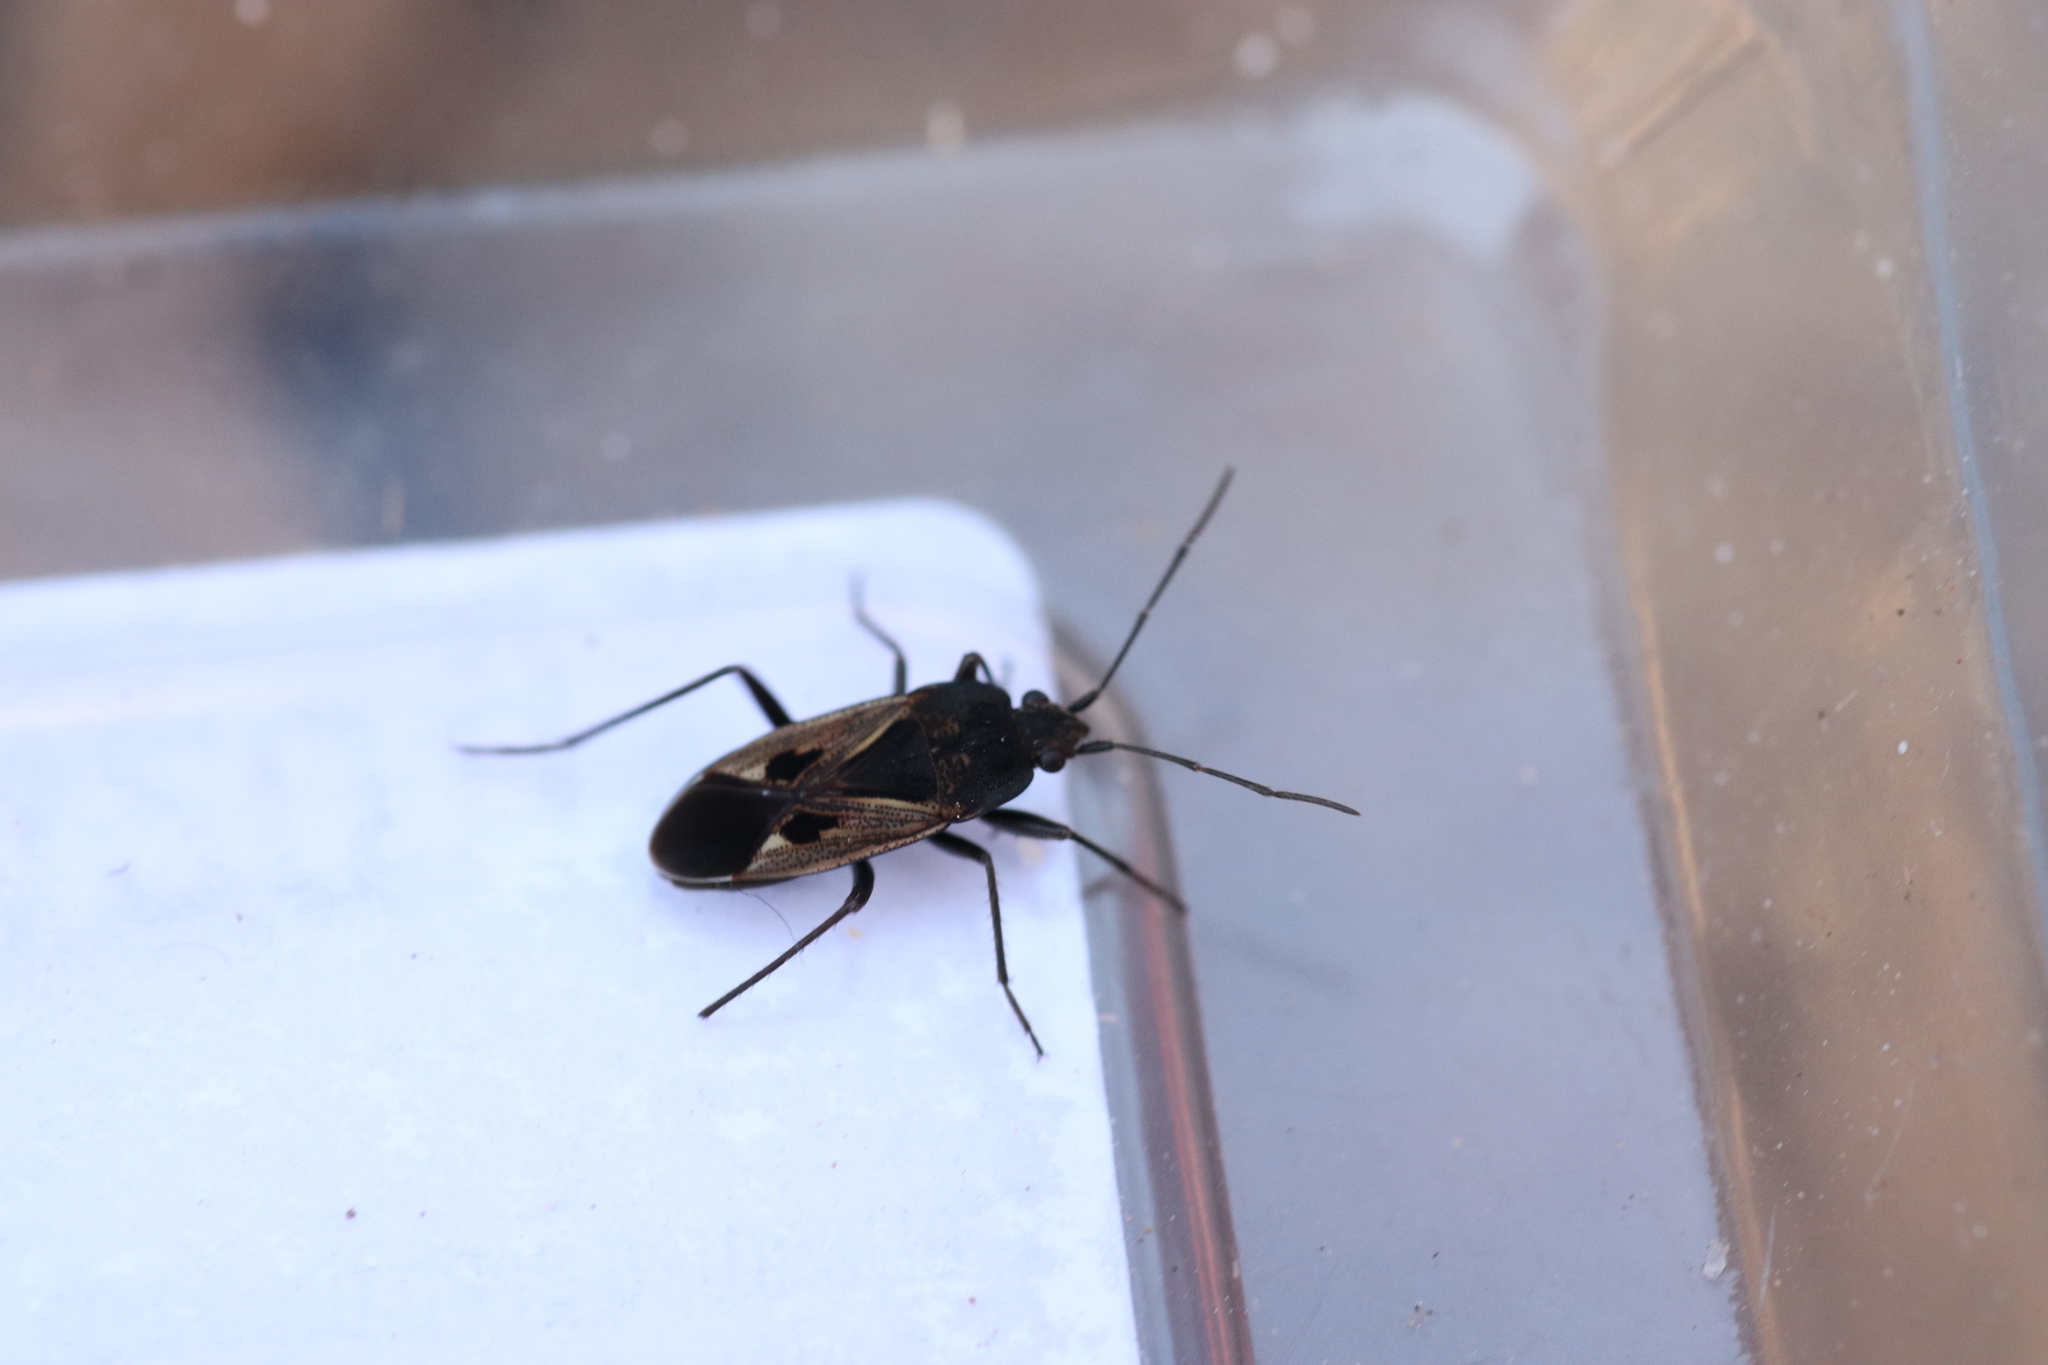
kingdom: Animalia
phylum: Arthropoda
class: Insecta
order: Hemiptera
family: Rhyparochromidae
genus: Rhyparochromus
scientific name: Rhyparochromus phoeniceus
